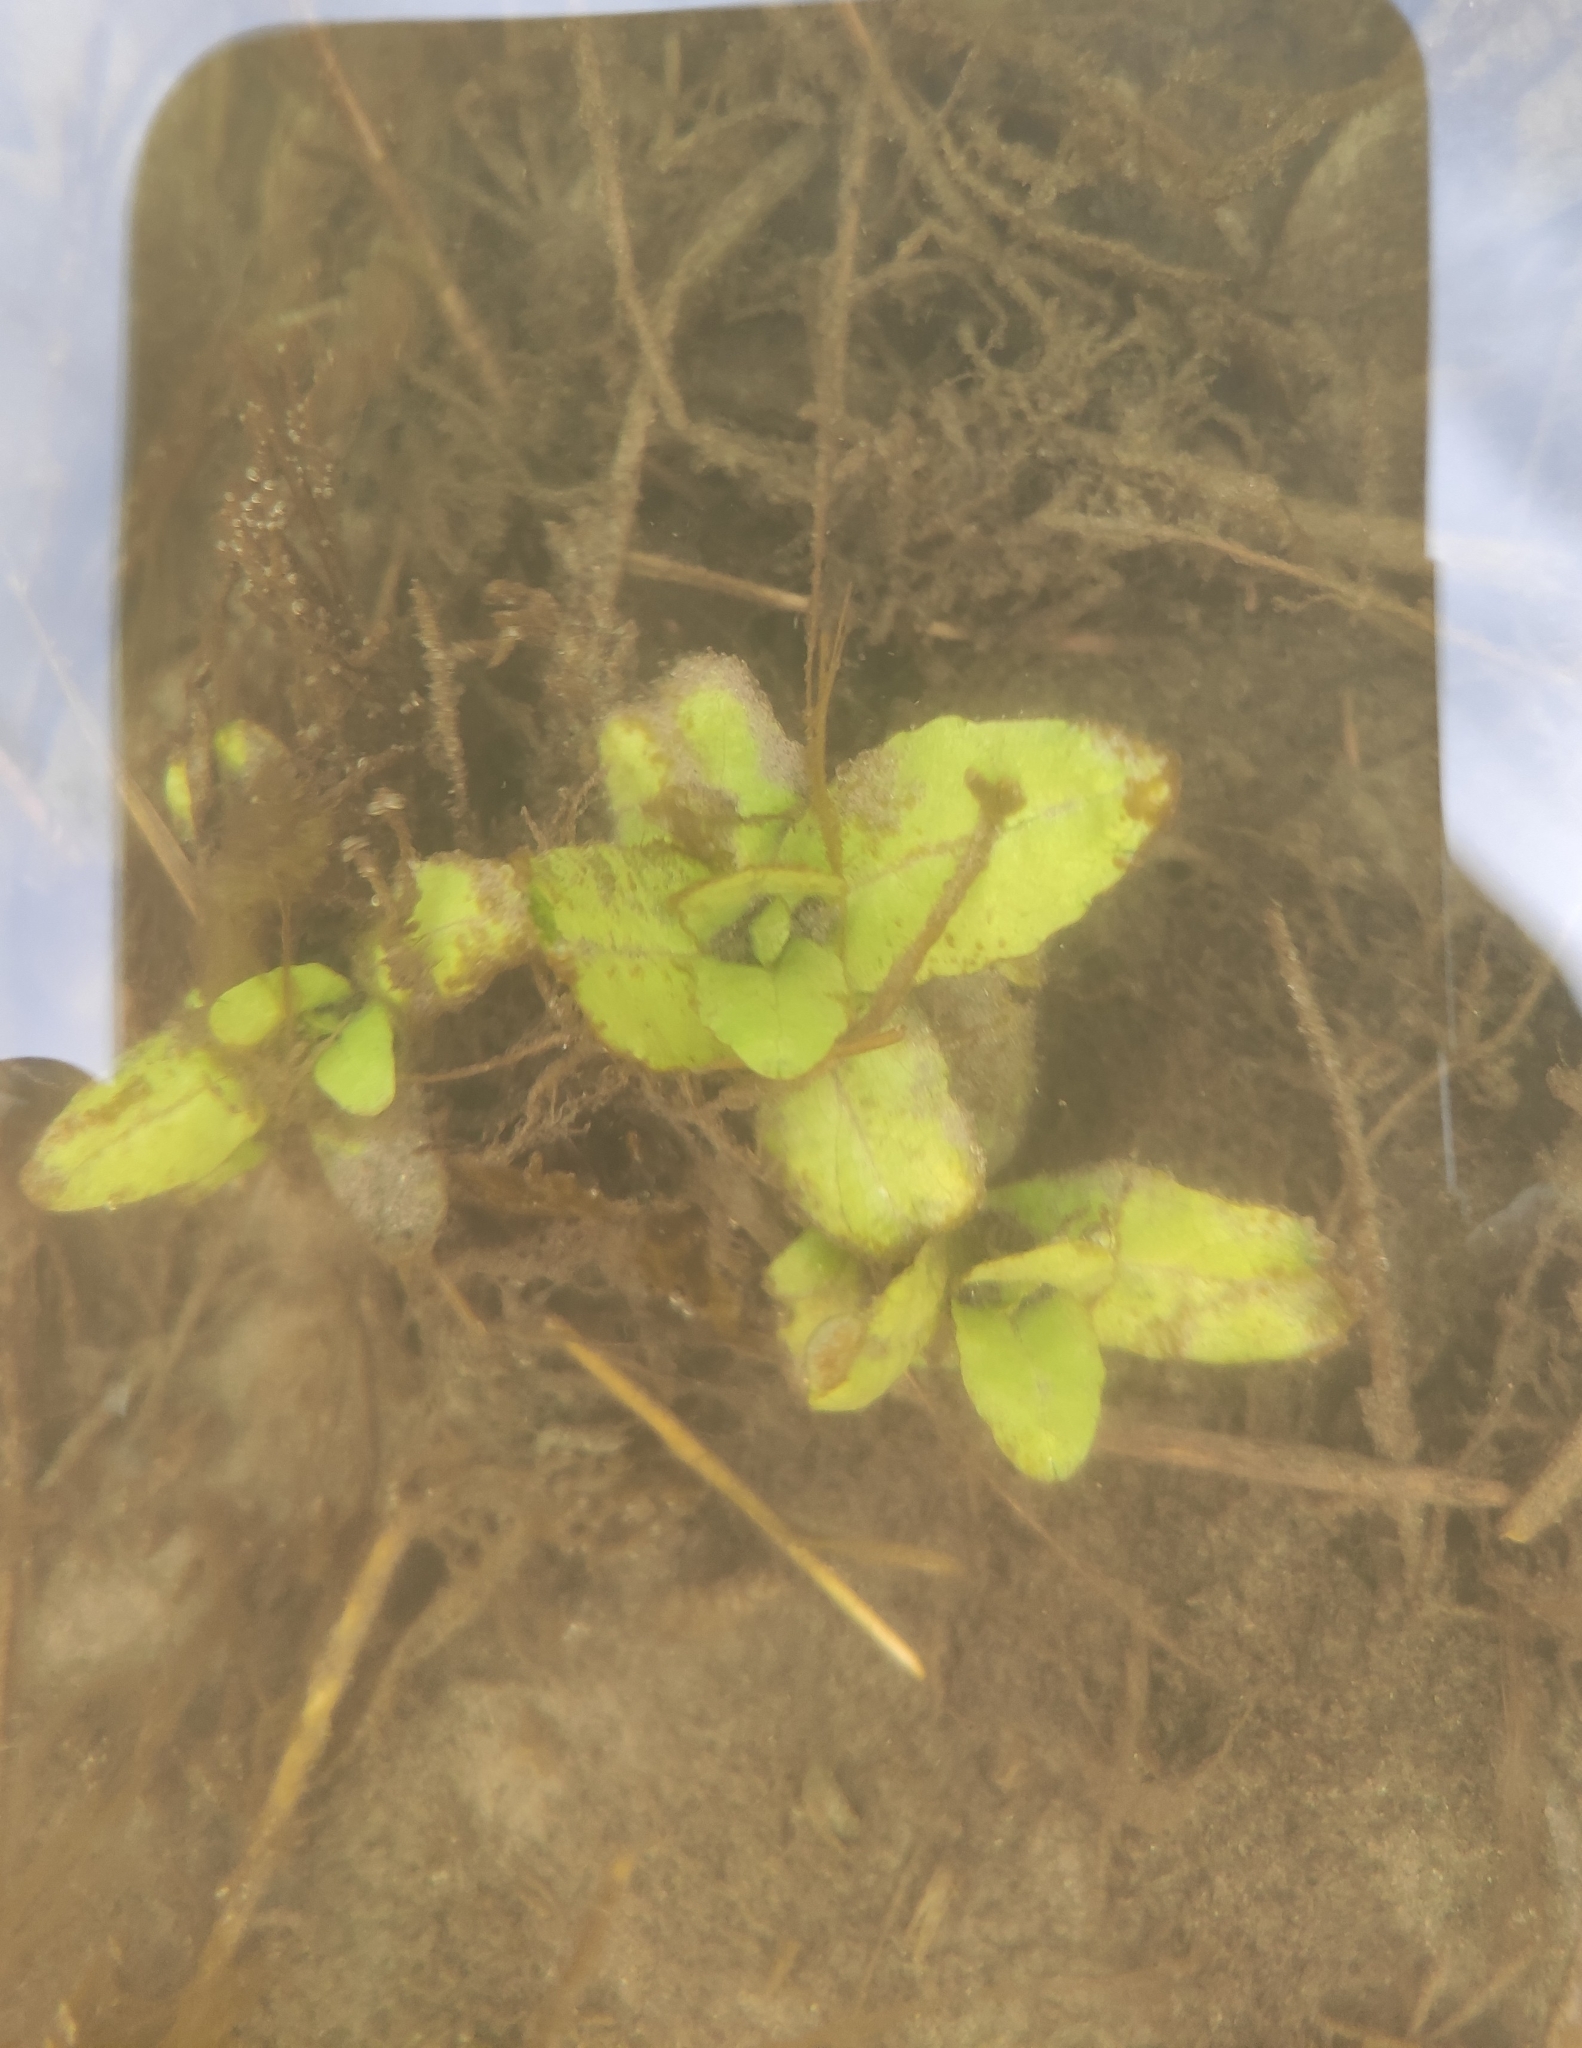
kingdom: Plantae
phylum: Tracheophyta
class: Magnoliopsida
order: Lamiales
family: Plantaginaceae
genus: Veronica
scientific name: Veronica anagallis-aquatica
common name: Water speedwell
